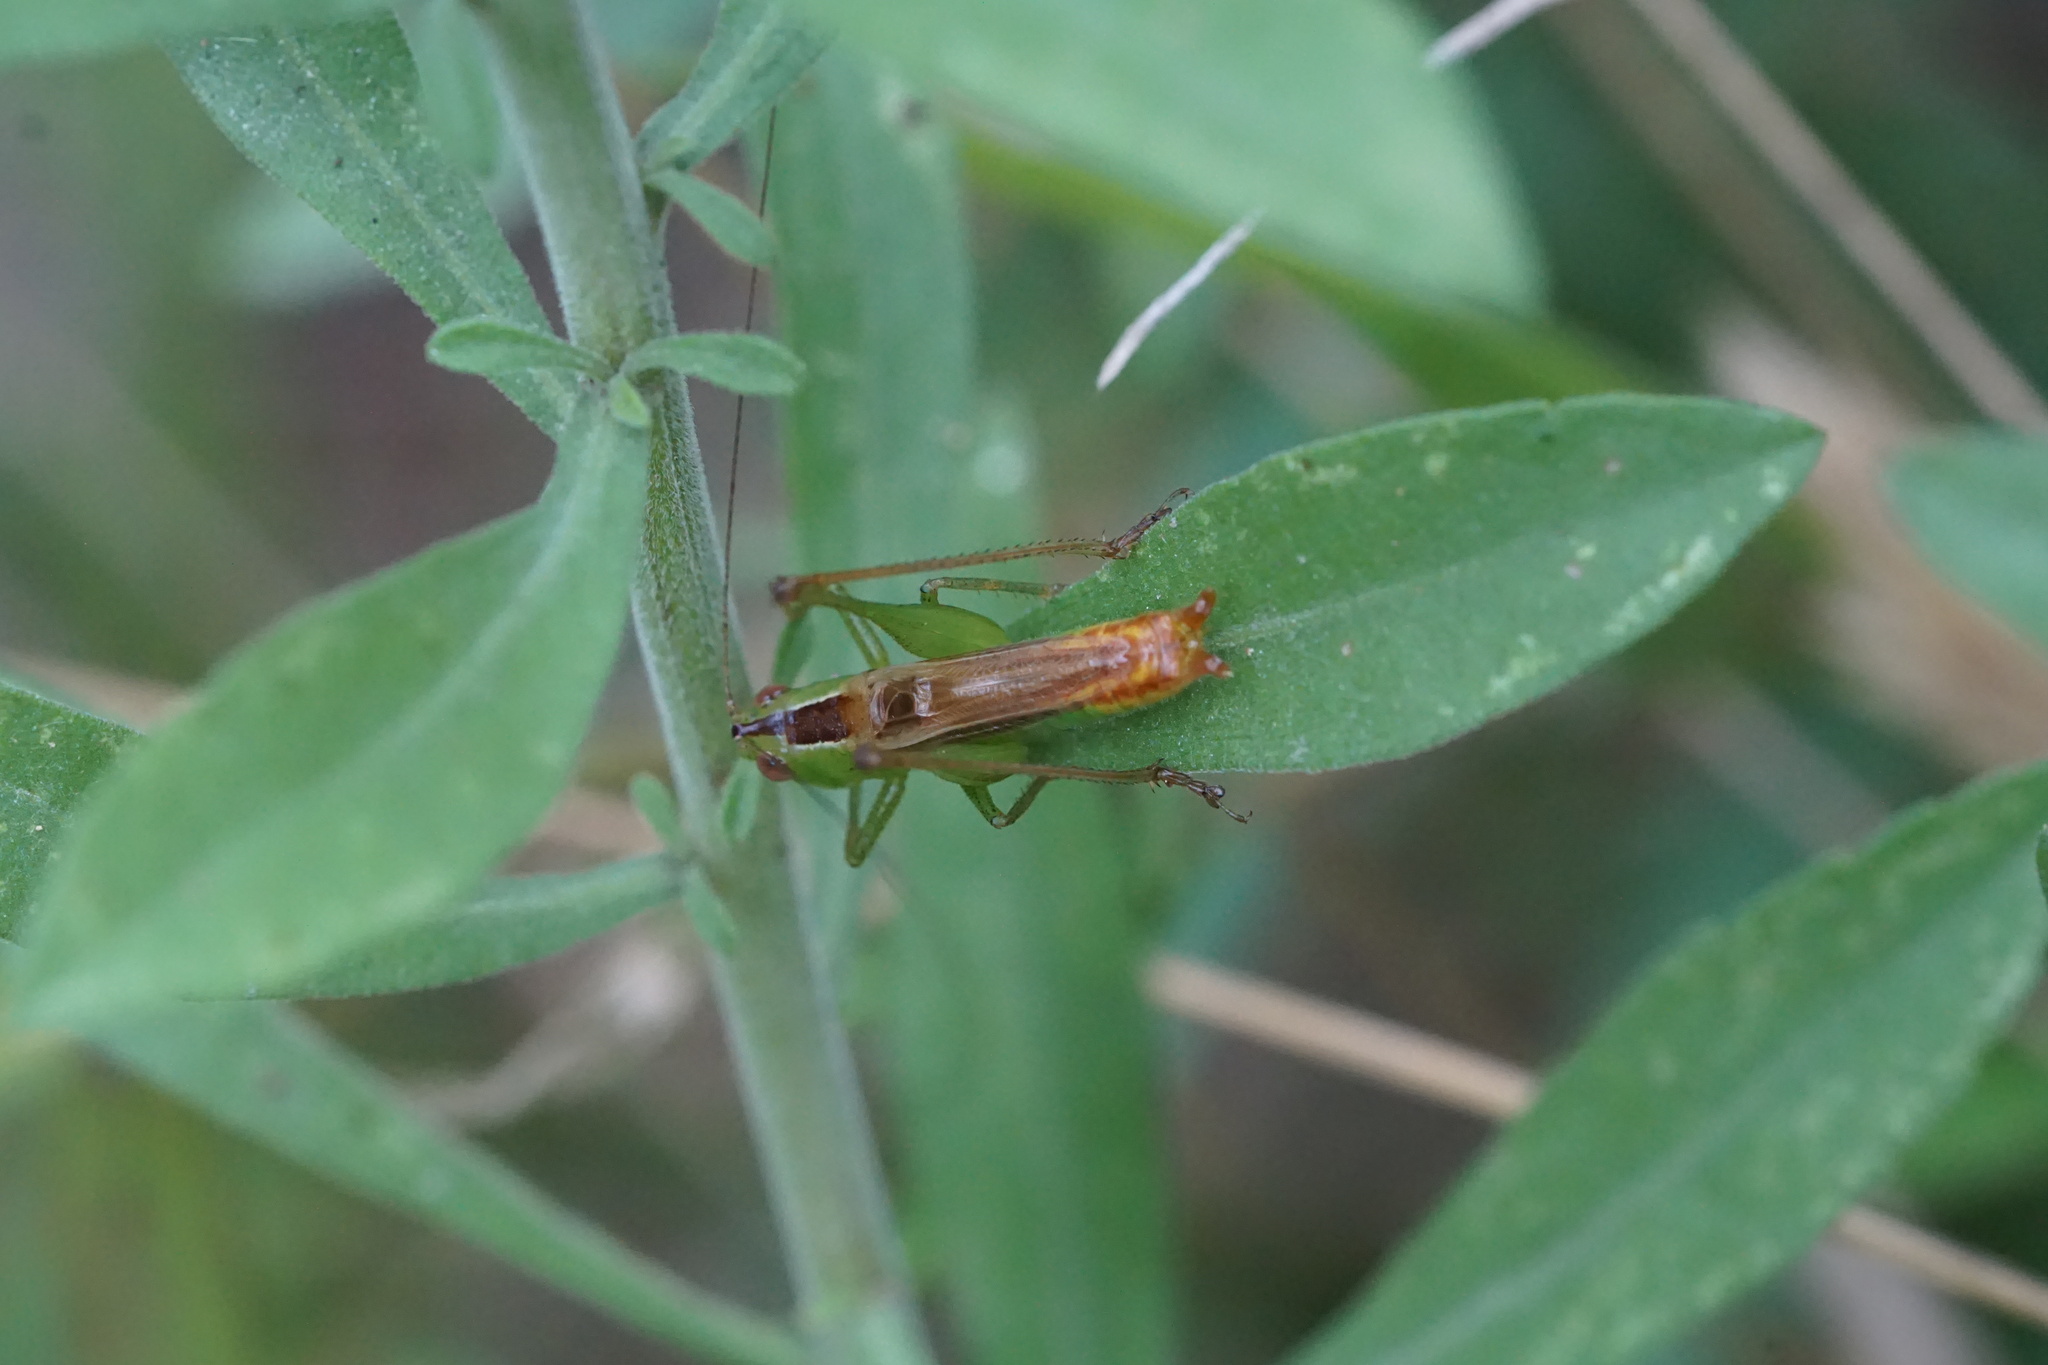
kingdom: Animalia
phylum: Arthropoda
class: Insecta
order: Orthoptera
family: Tettigoniidae
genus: Conocephalus
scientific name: Conocephalus brevipennis
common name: Short-winged meadow katydid
